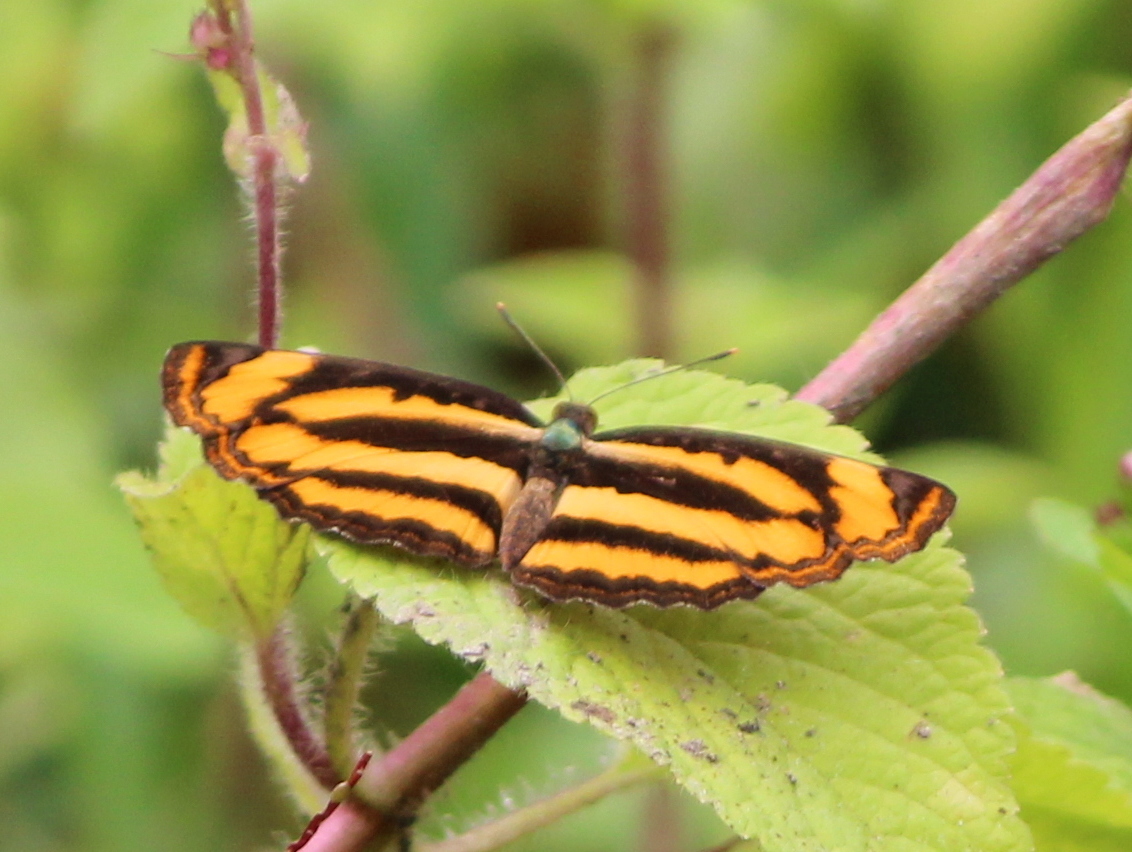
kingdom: Animalia
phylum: Arthropoda
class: Insecta
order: Lepidoptera
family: Nymphalidae
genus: Pantoporia
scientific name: Pantoporia hordonia
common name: Common lascar
